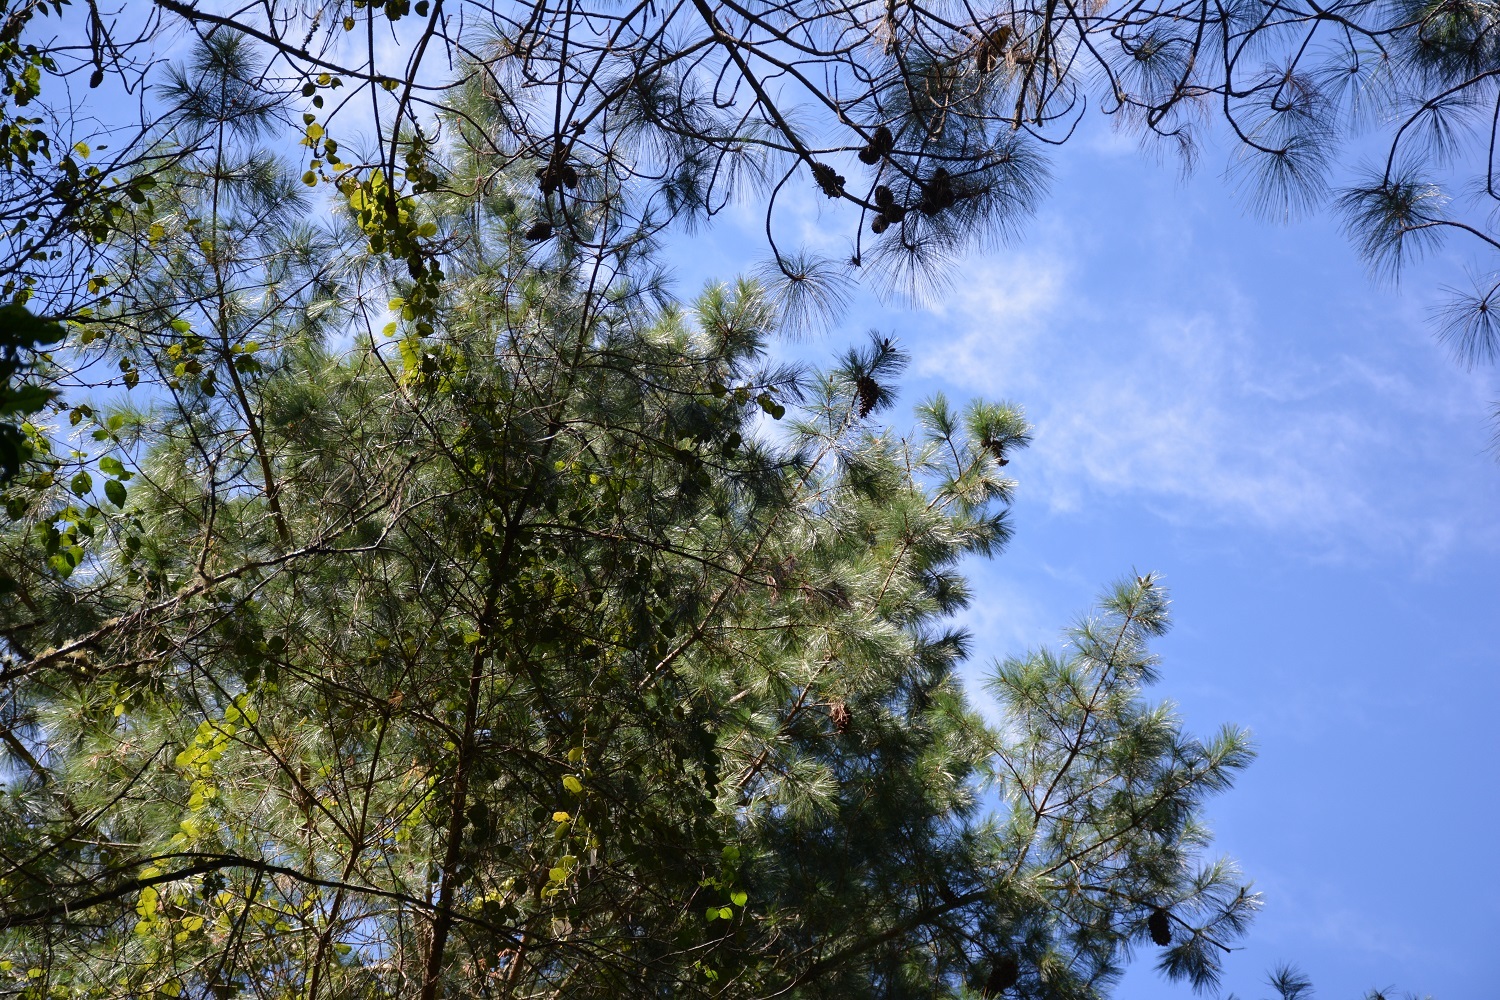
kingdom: Plantae
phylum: Tracheophyta
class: Pinopsida
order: Pinales
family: Pinaceae
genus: Pinus
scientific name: Pinus ayacahuite
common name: Mexican white pine
